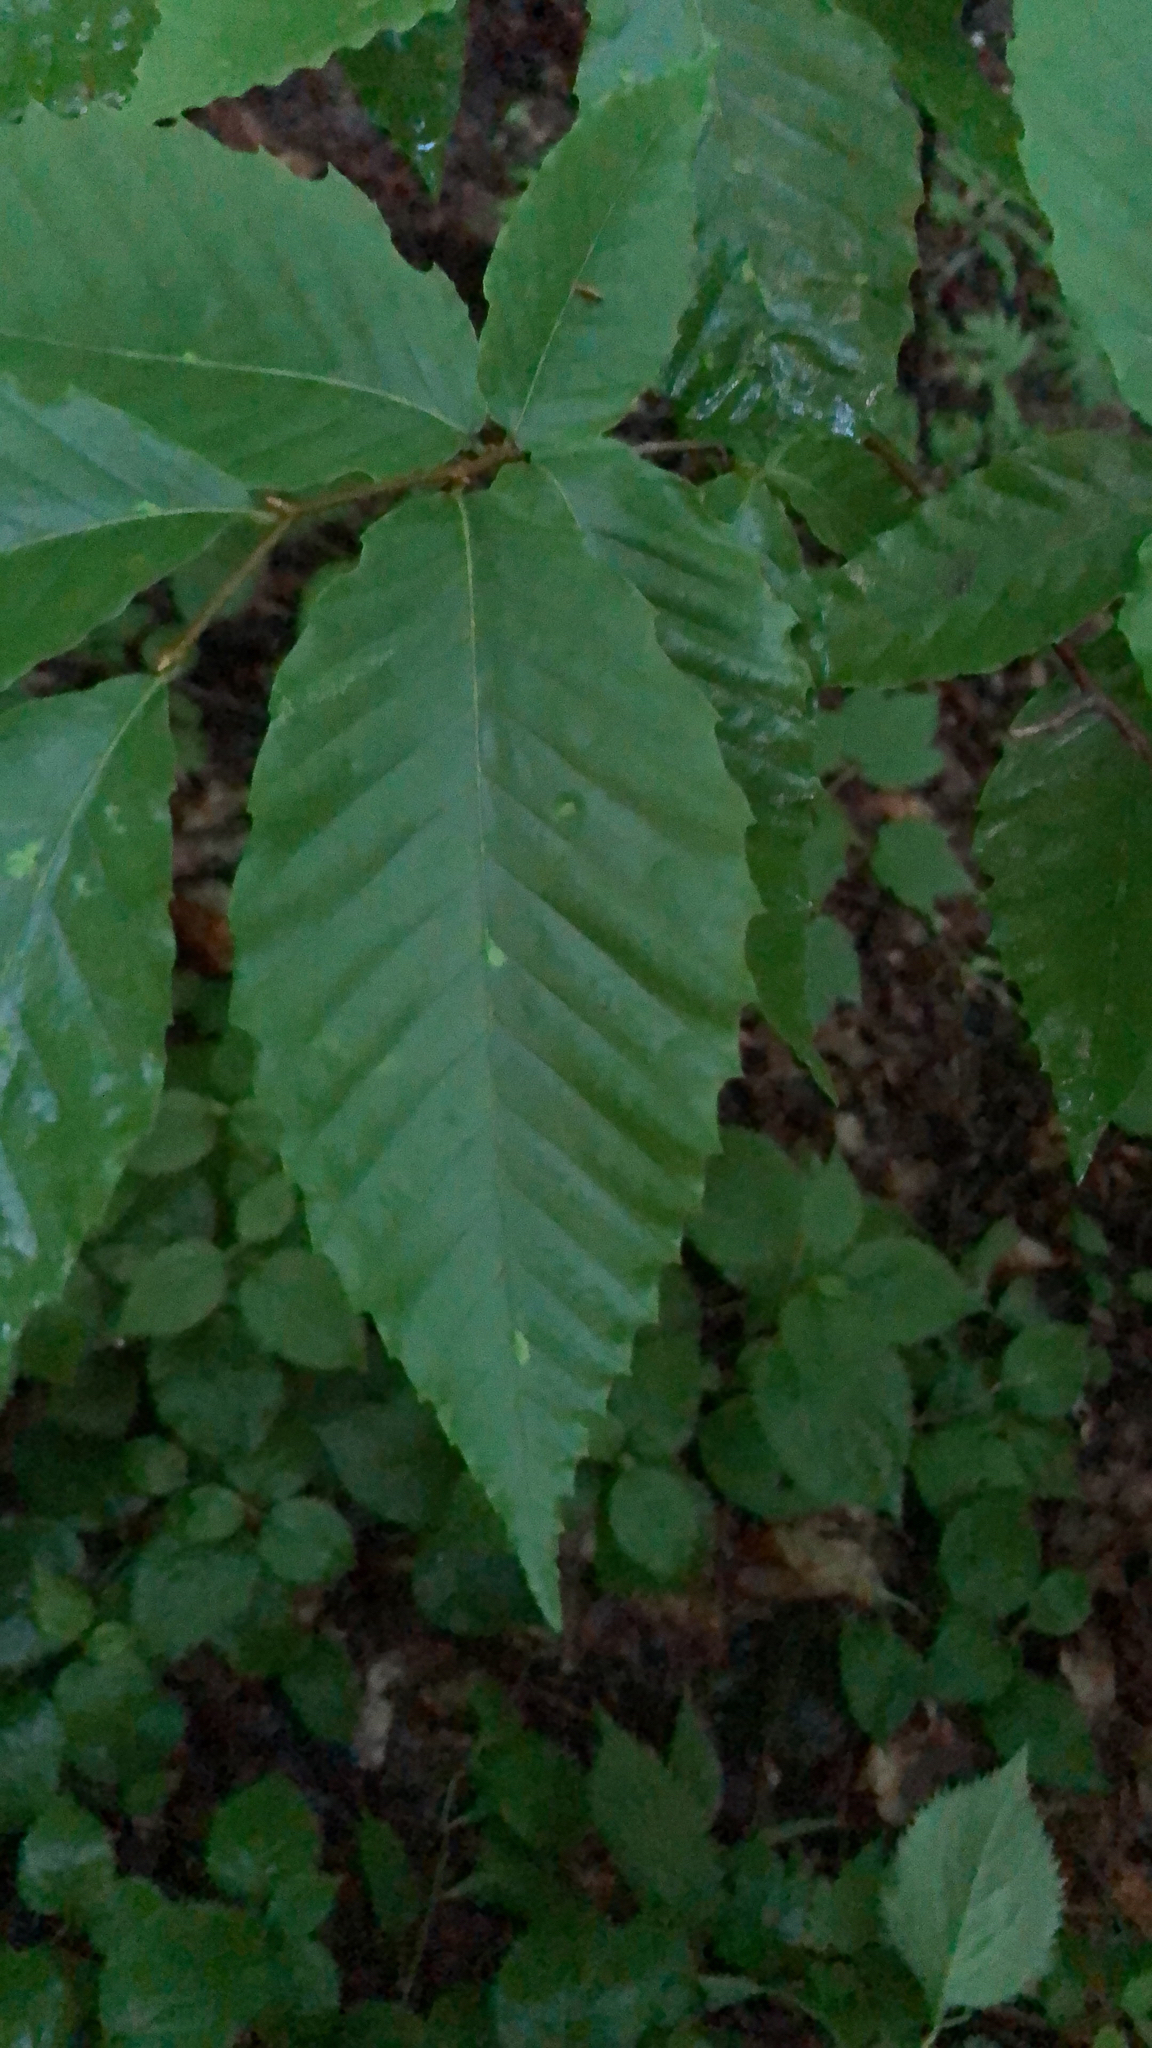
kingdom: Plantae
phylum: Tracheophyta
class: Magnoliopsida
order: Fagales
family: Fagaceae
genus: Fagus
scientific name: Fagus grandifolia
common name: American beech
